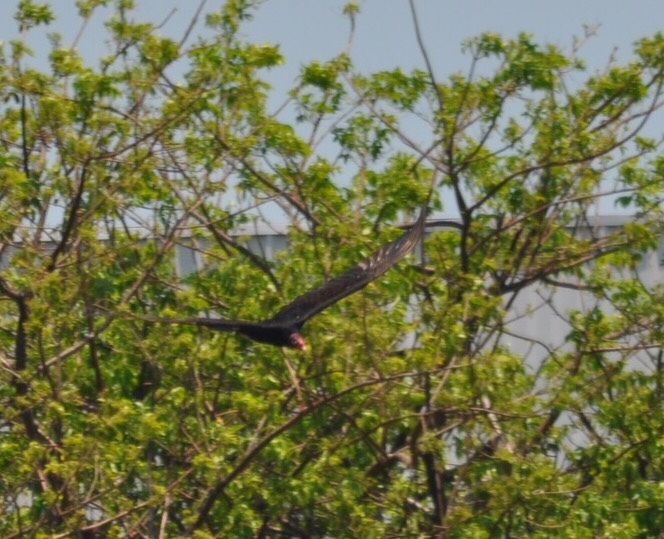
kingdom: Animalia
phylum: Chordata
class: Aves
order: Accipitriformes
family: Cathartidae
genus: Cathartes
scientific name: Cathartes aura
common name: Turkey vulture
